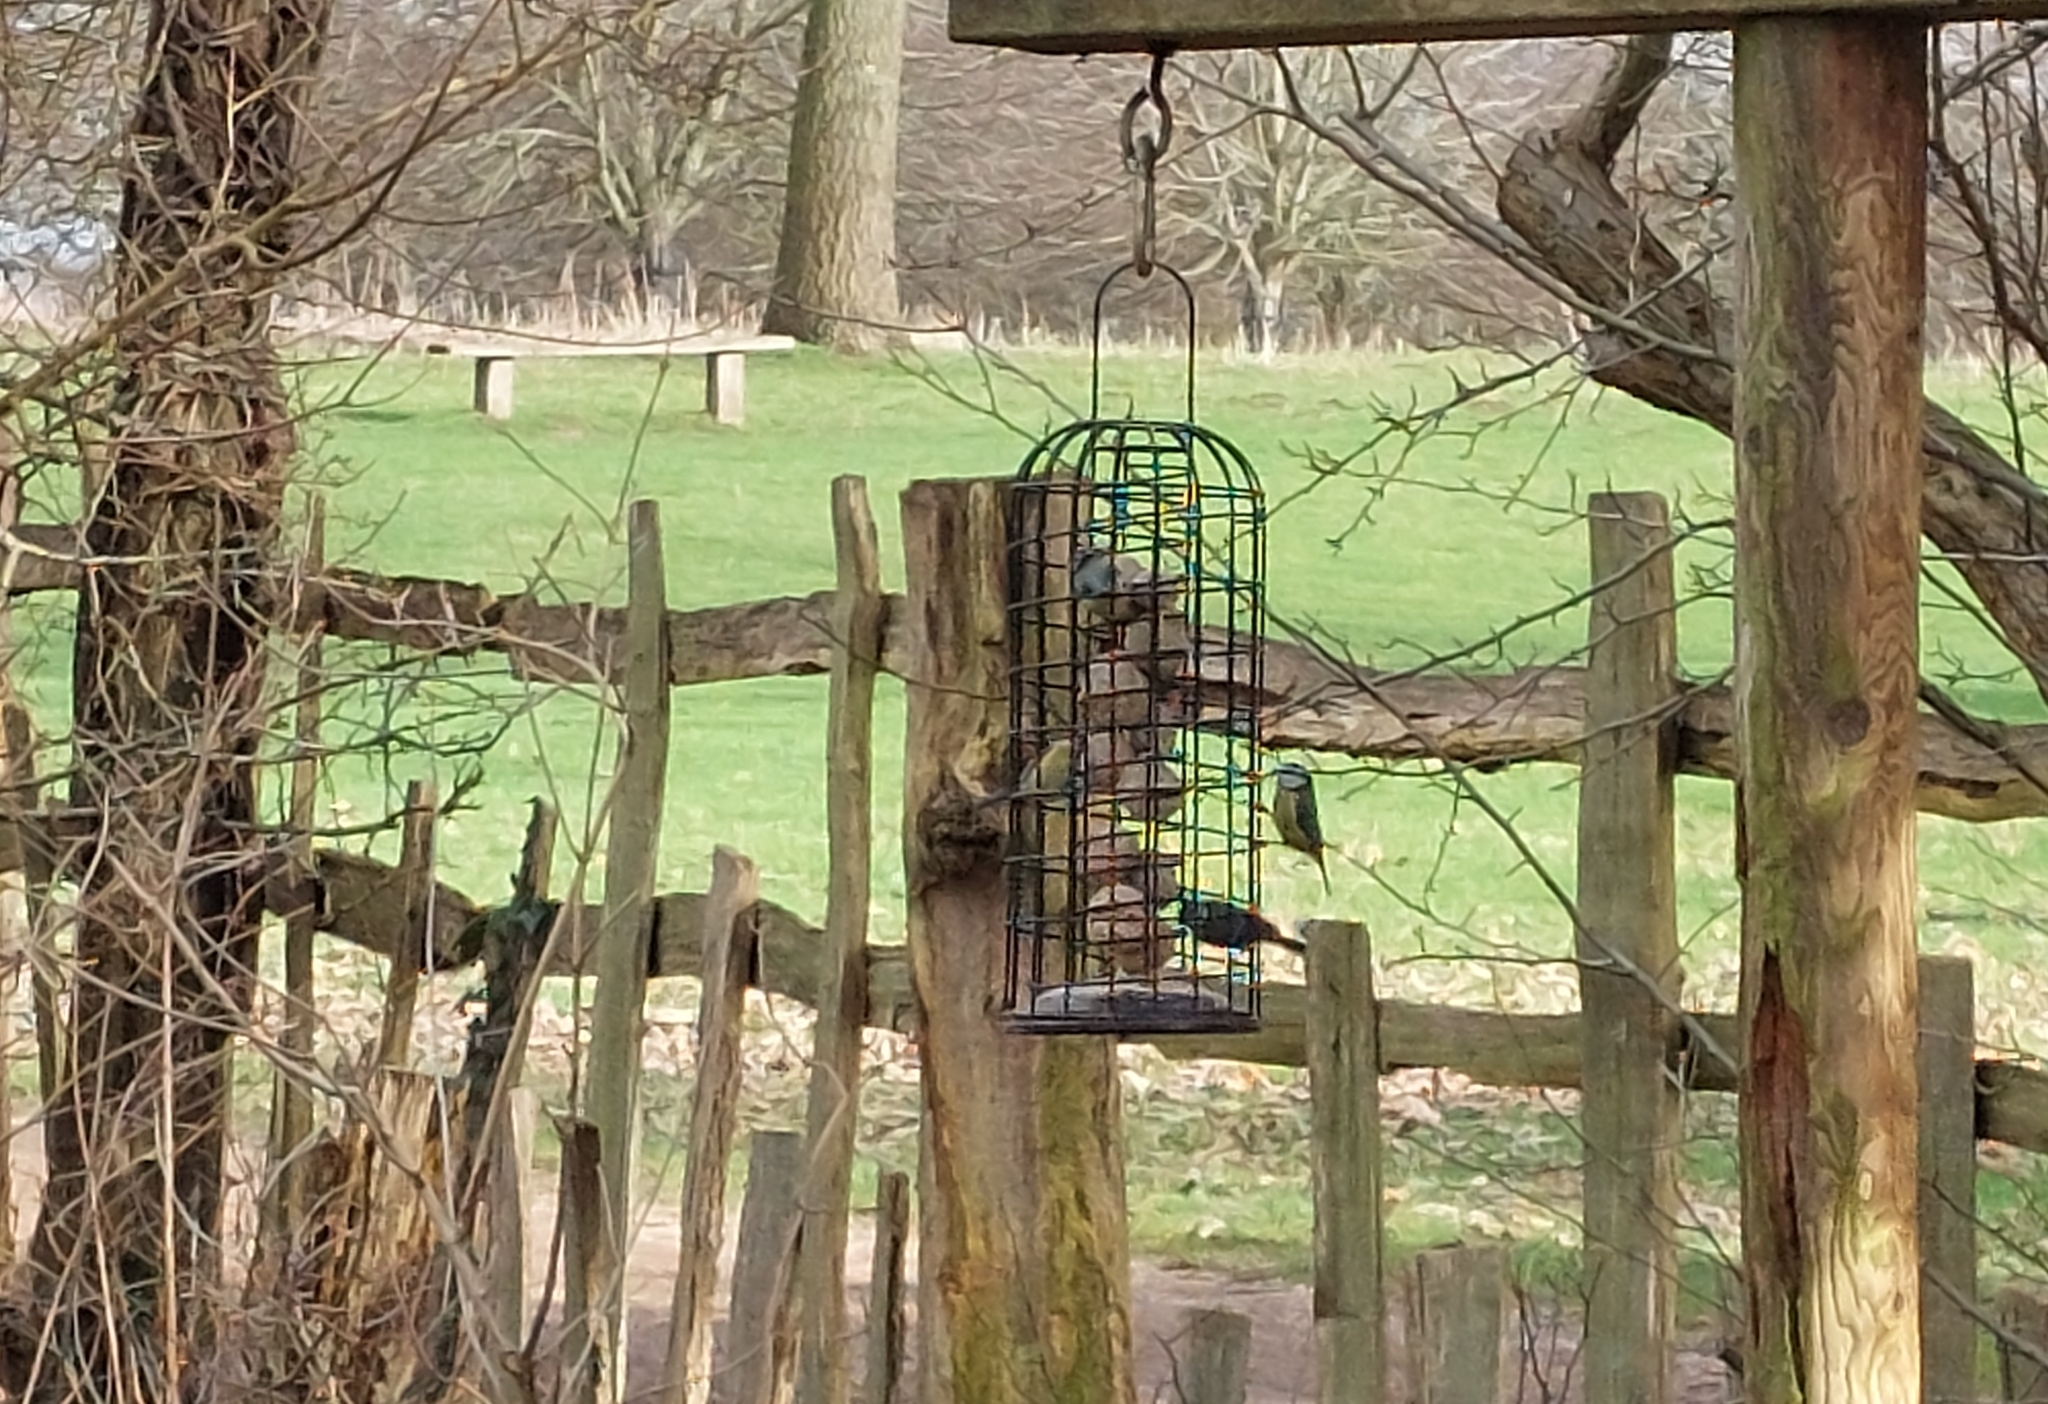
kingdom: Animalia
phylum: Chordata
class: Aves
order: Passeriformes
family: Paridae
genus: Cyanistes
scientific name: Cyanistes caeruleus
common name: Eurasian blue tit
